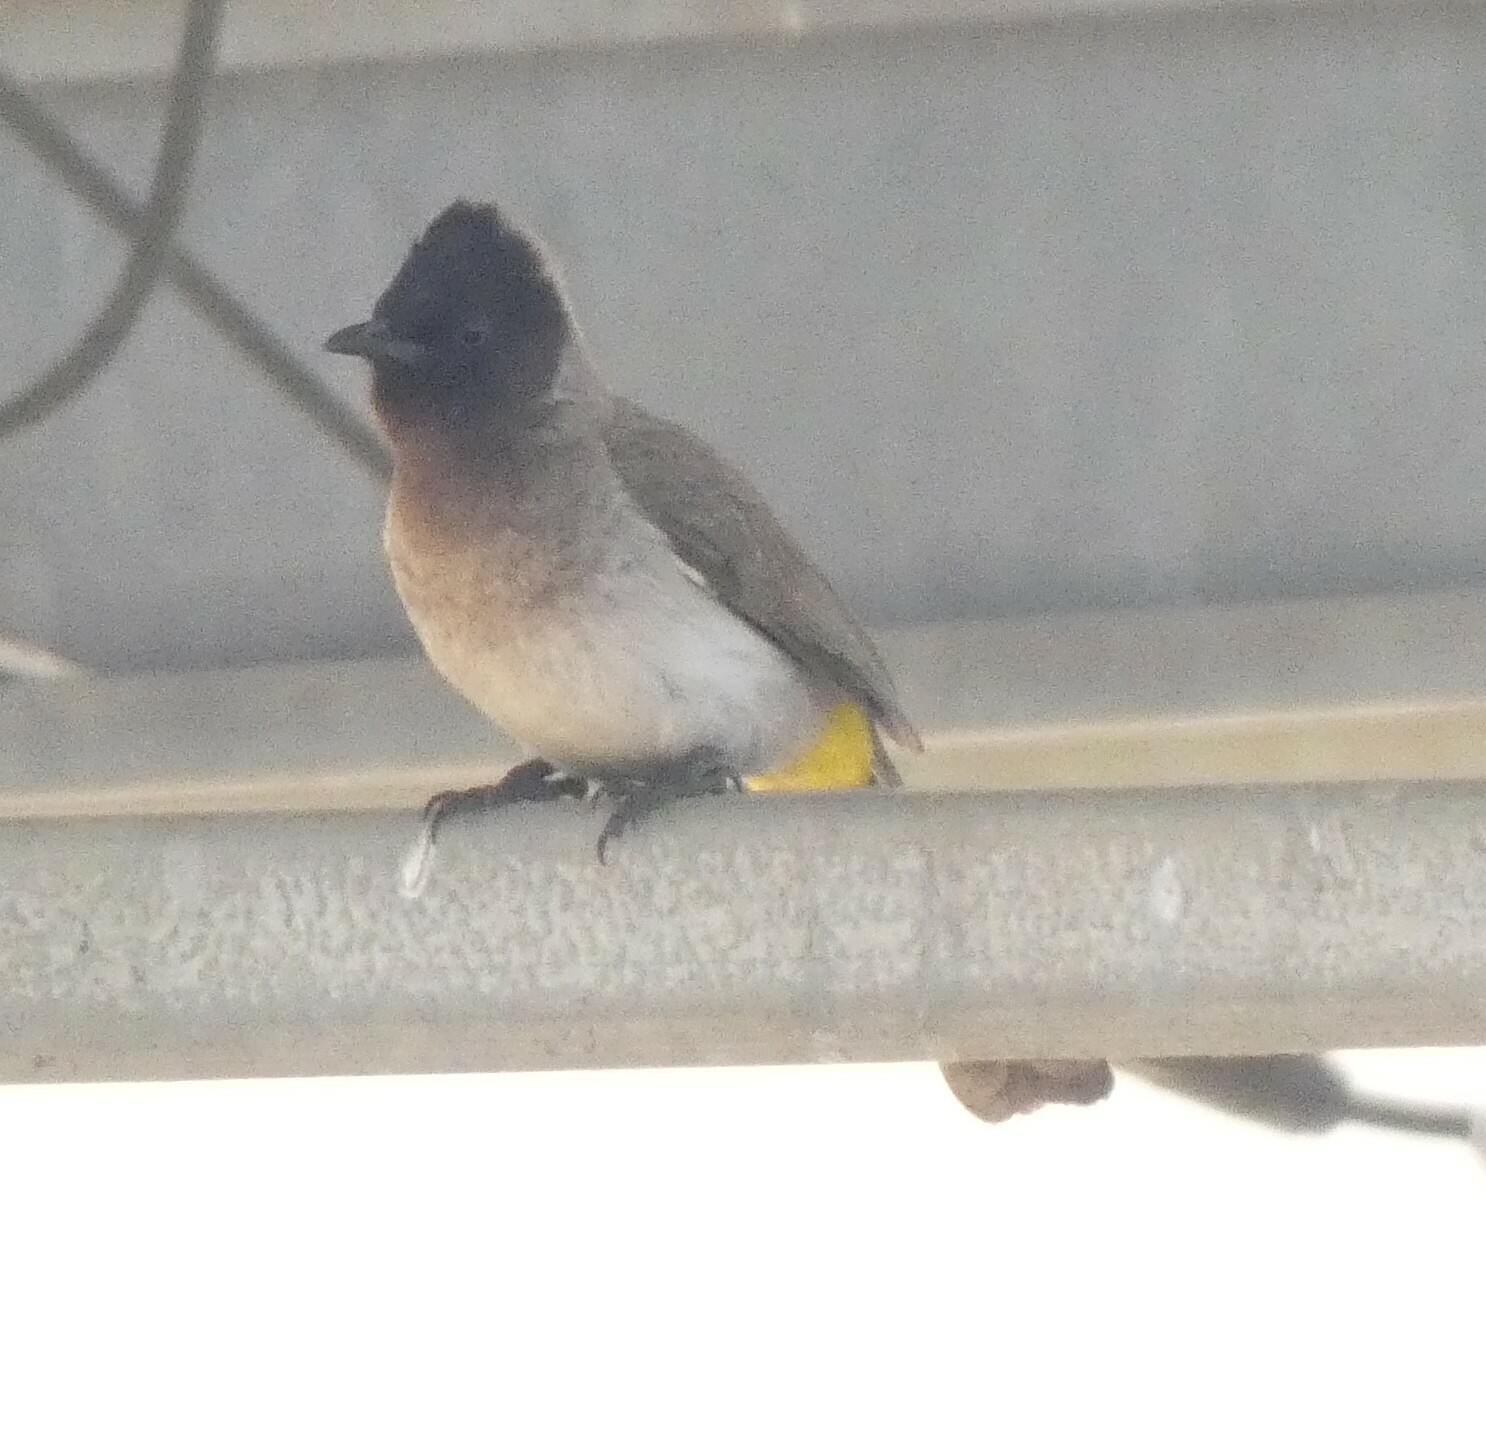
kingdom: Animalia
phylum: Chordata
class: Aves
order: Passeriformes
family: Pycnonotidae
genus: Pycnonotus
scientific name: Pycnonotus barbatus
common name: Common bulbul
